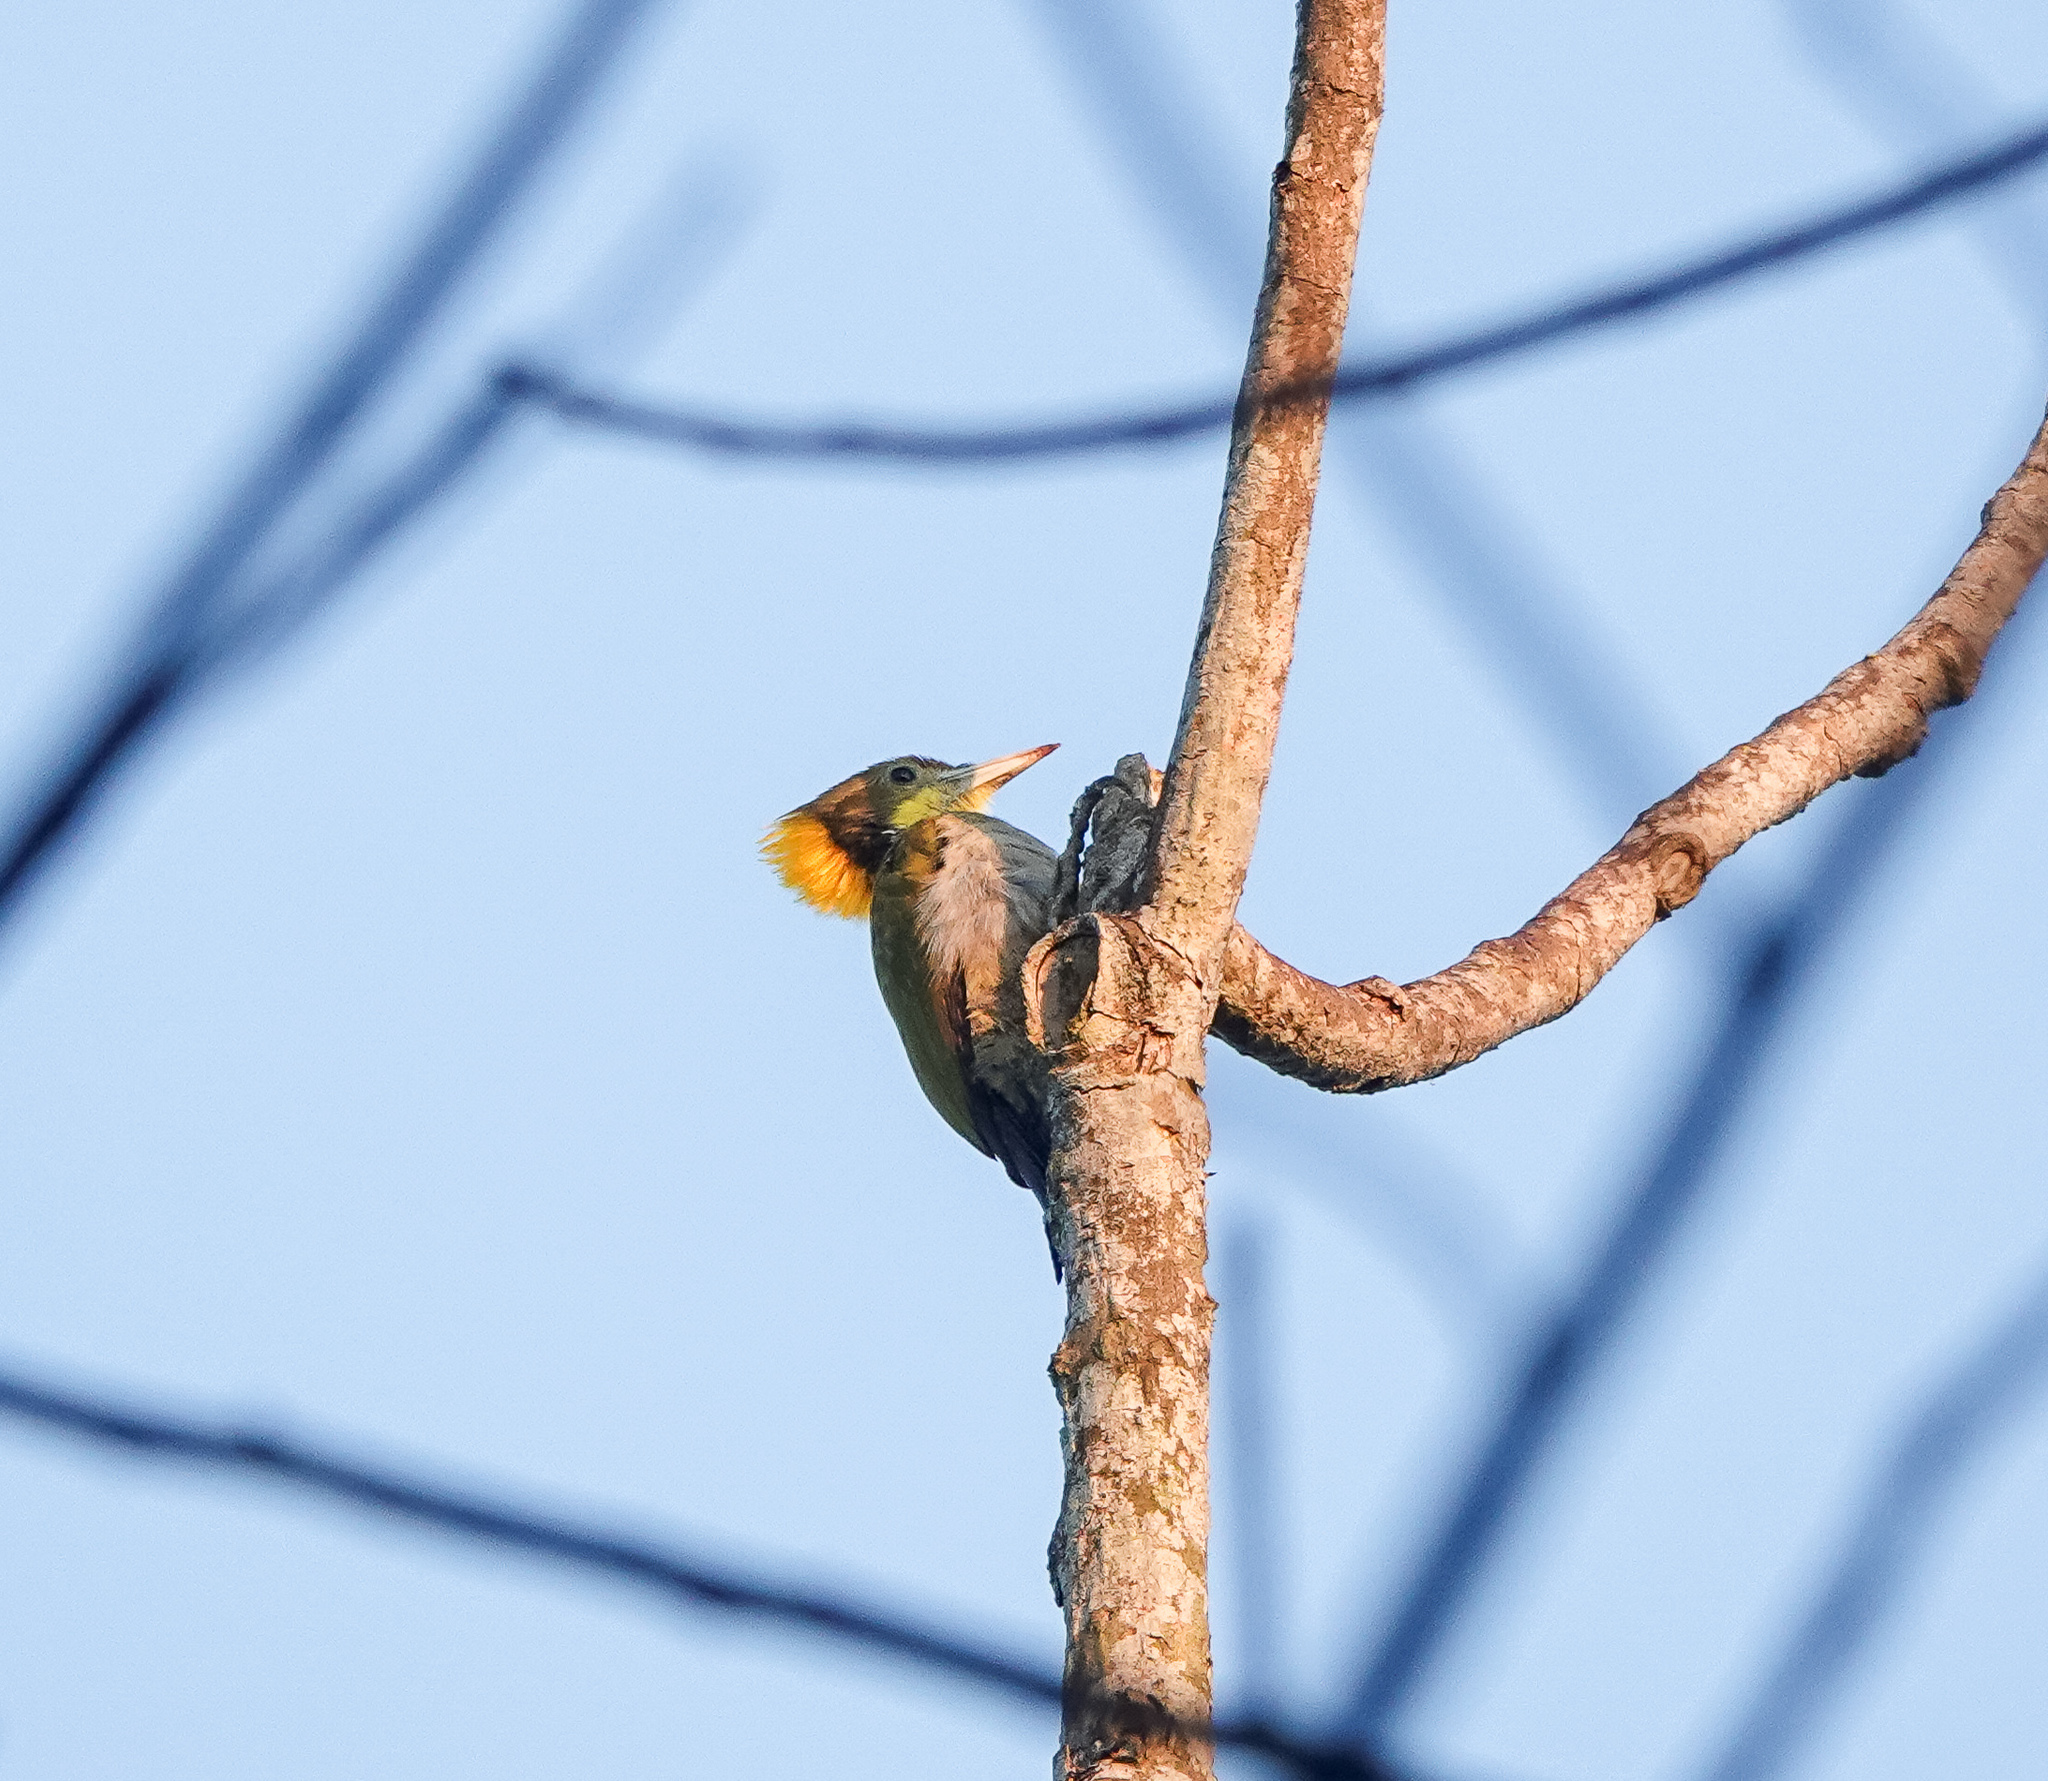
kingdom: Animalia
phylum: Chordata
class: Aves
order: Piciformes
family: Picidae
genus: Picus
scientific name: Picus chlorolophus
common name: Lesser yellownape
